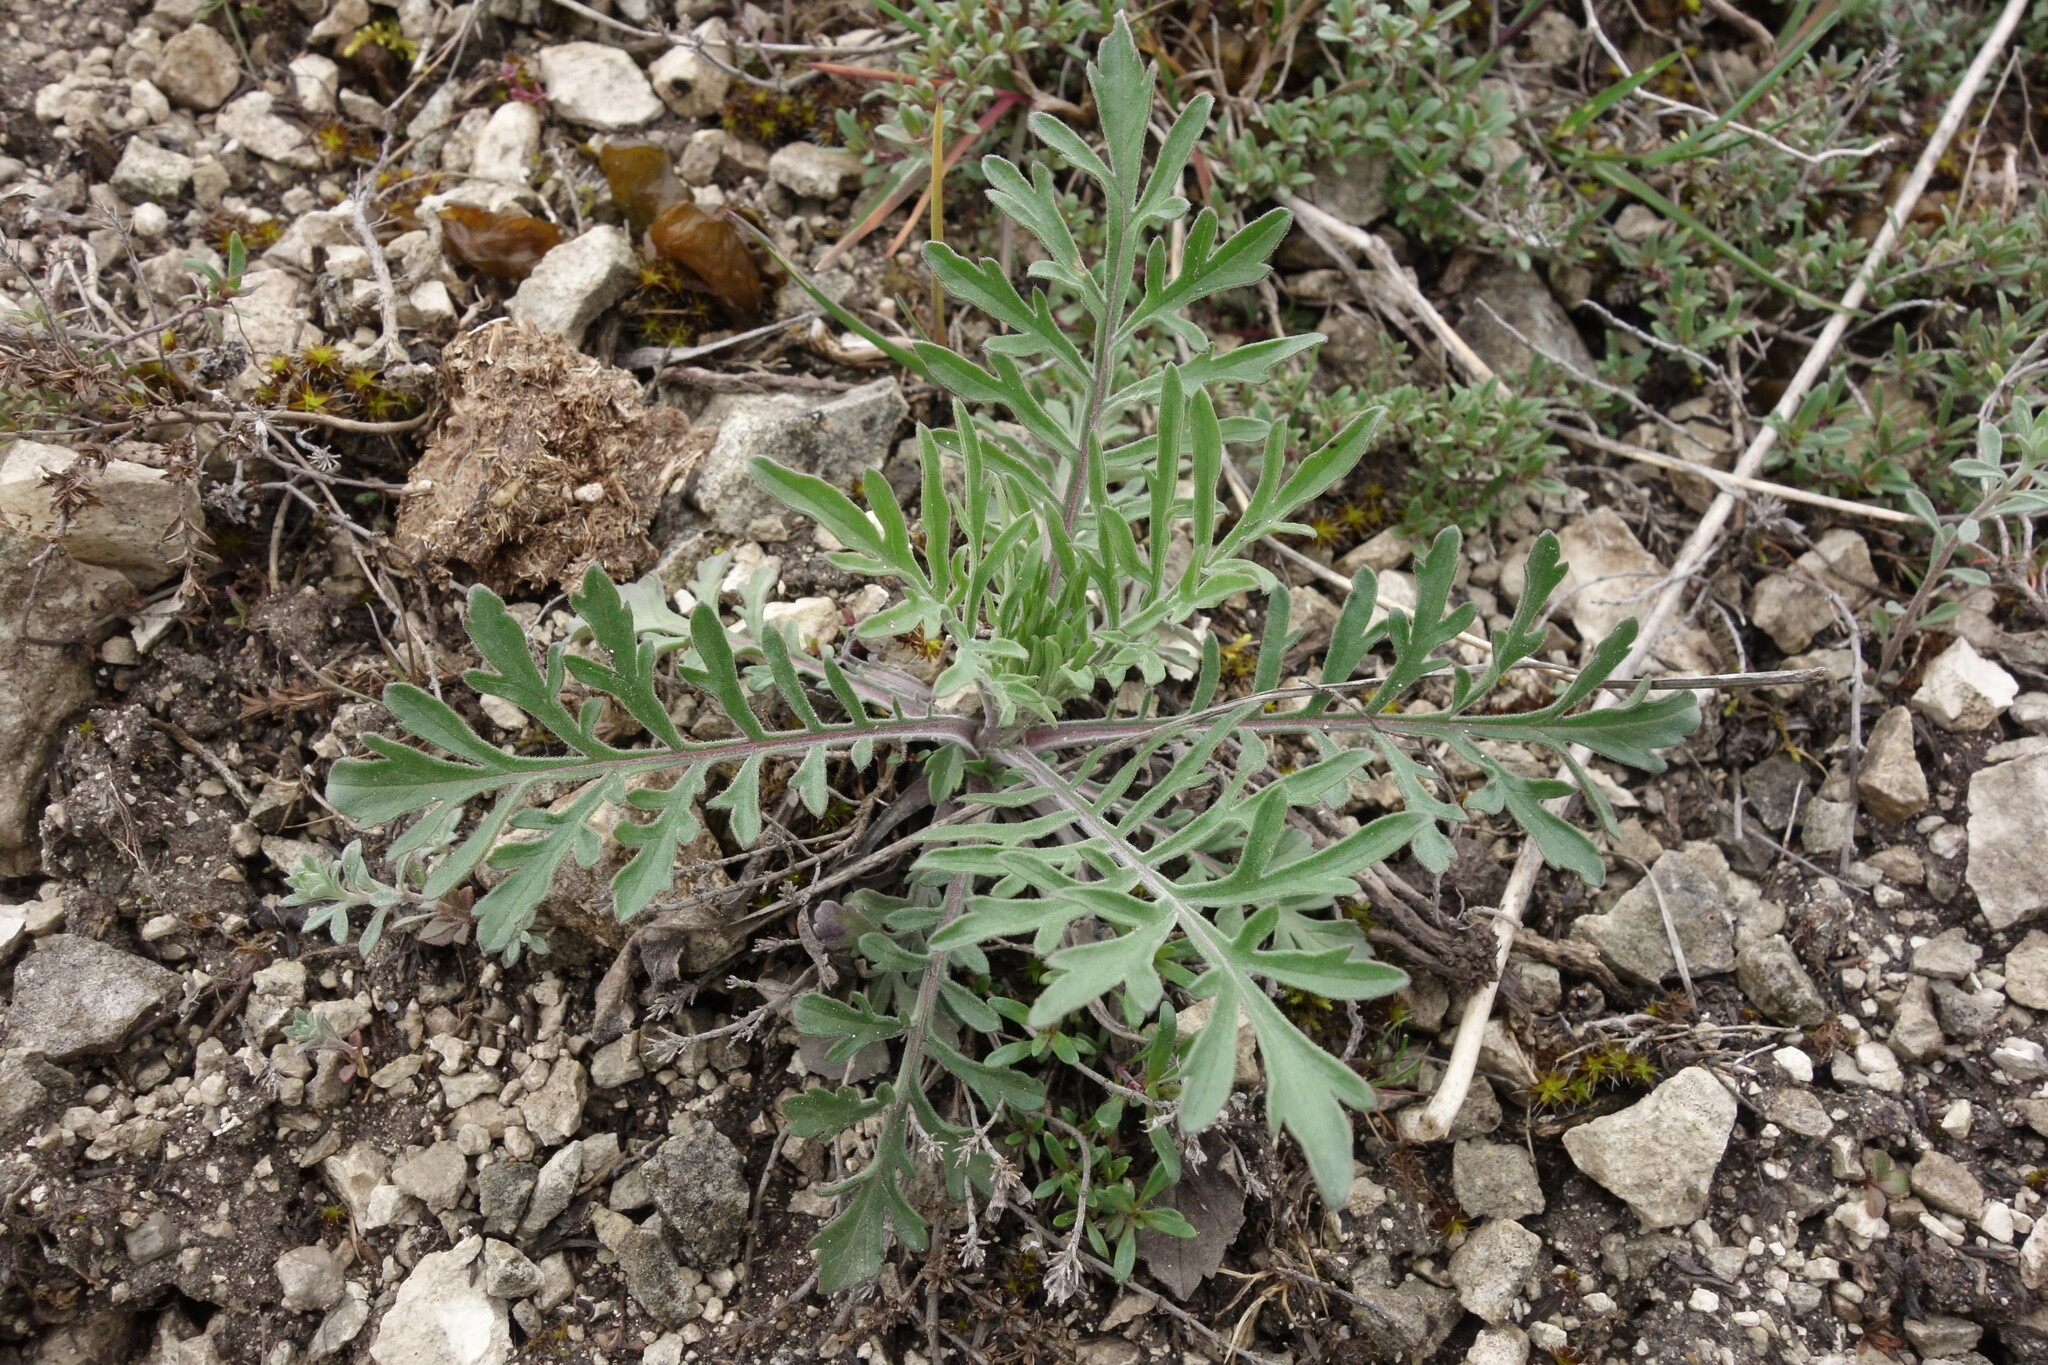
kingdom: Plantae
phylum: Tracheophyta
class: Magnoliopsida
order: Dipsacales
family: Caprifoliaceae
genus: Scabiosa
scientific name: Scabiosa ochroleuca
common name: Cream pincushions
